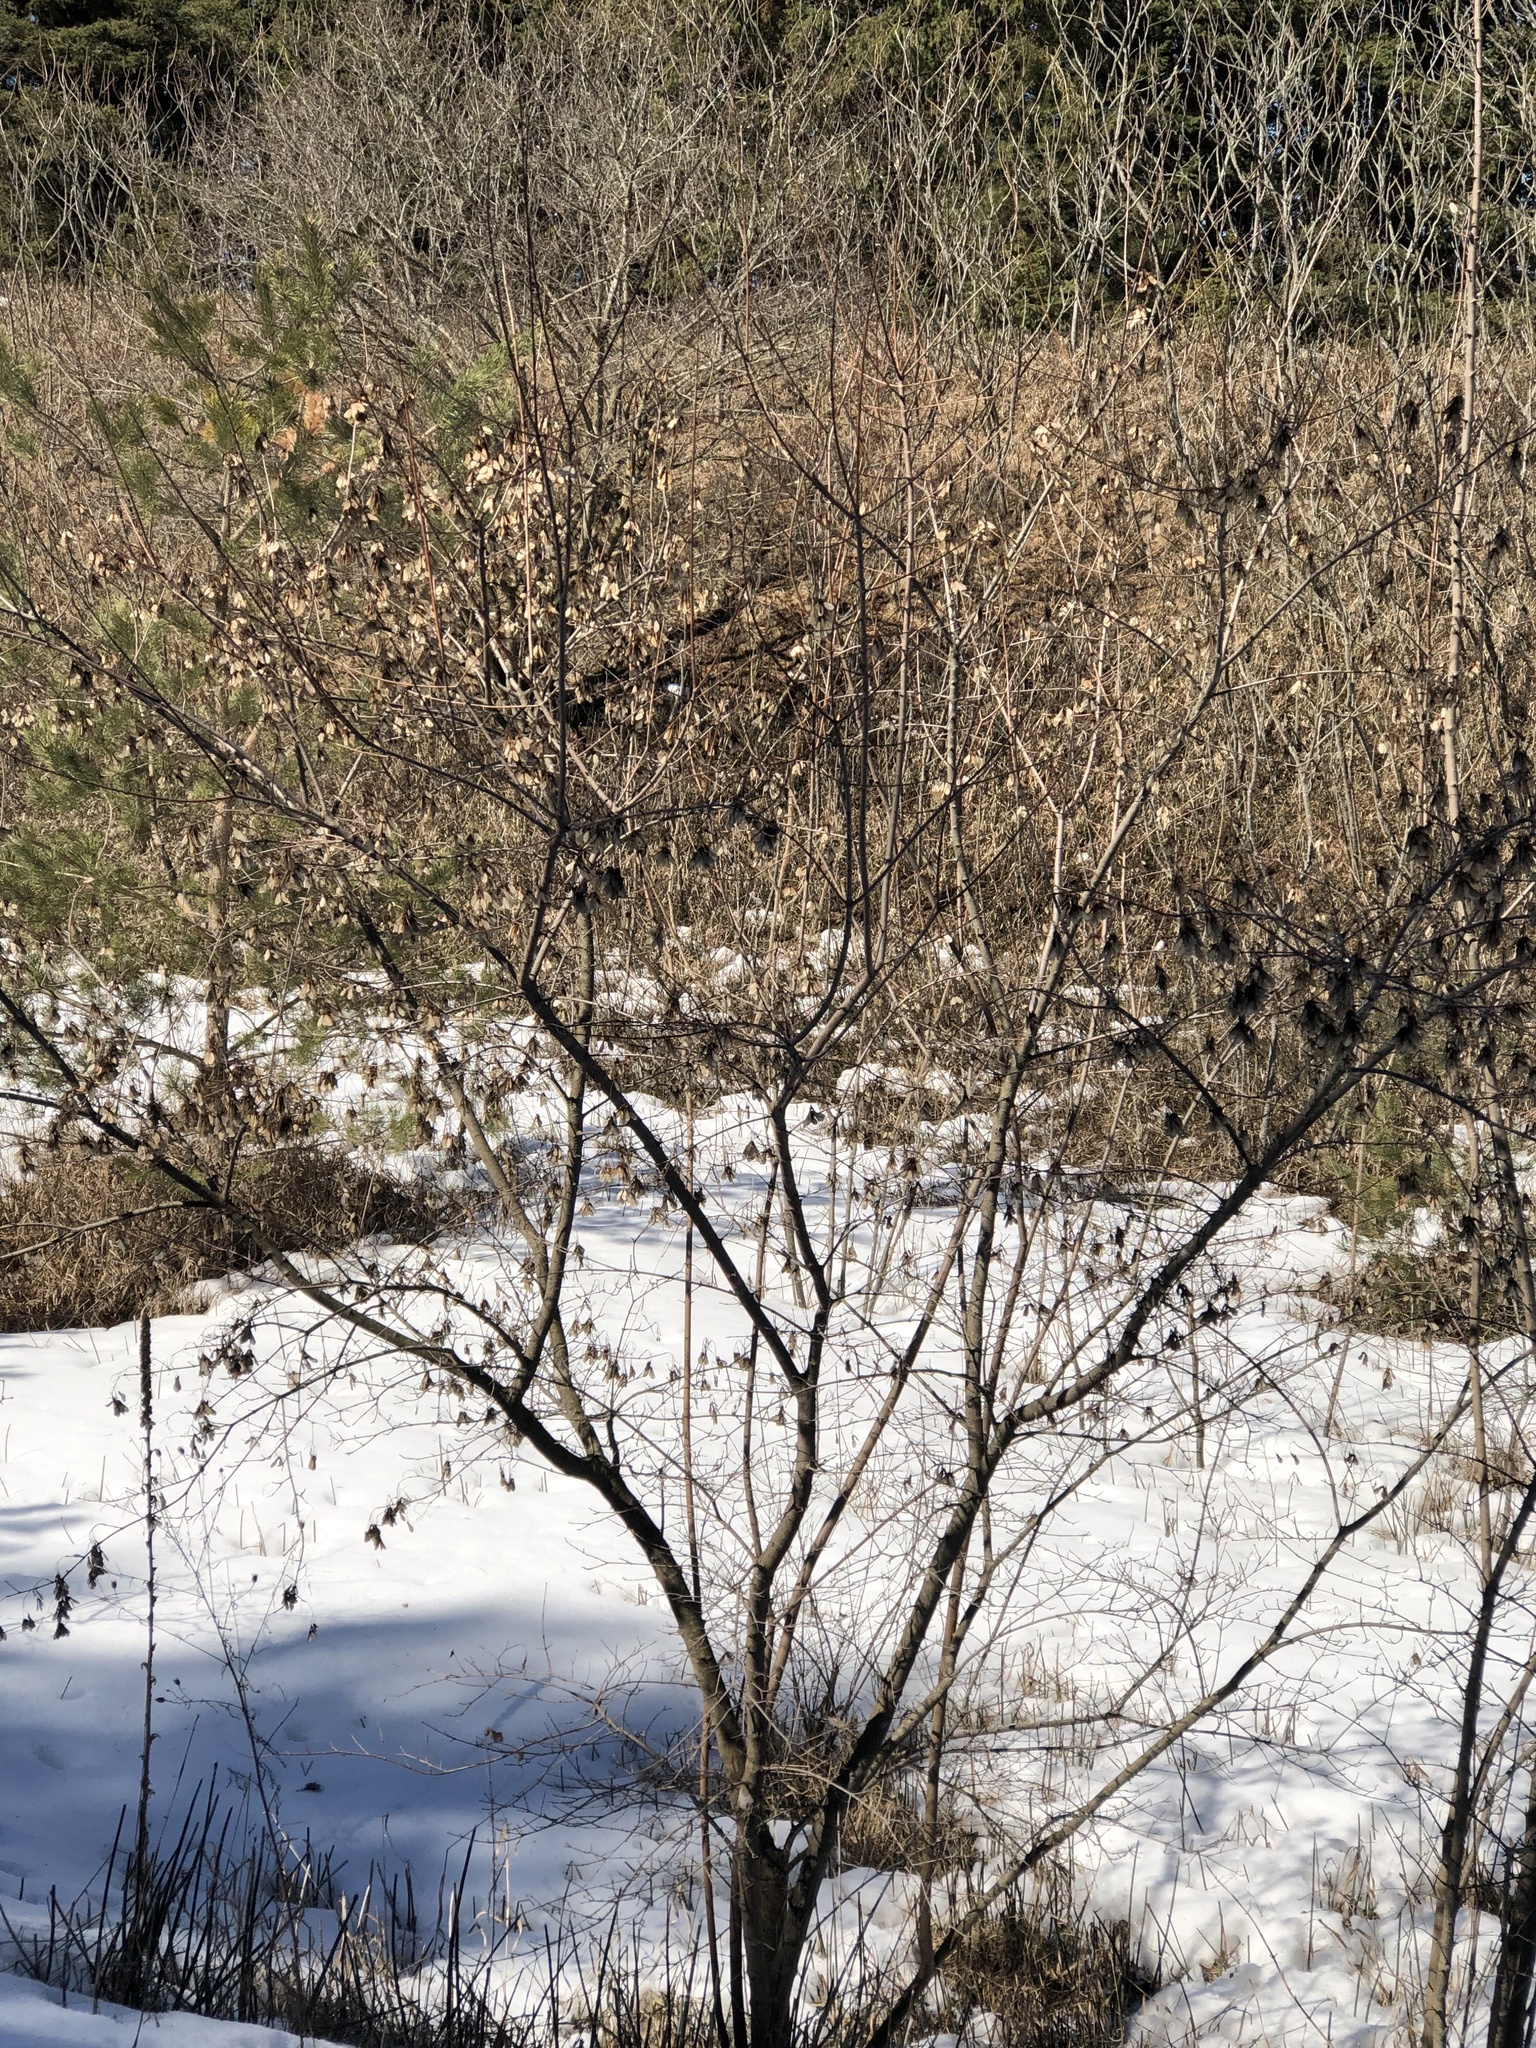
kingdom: Plantae
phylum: Tracheophyta
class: Magnoliopsida
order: Rosales
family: Rhamnaceae
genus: Rhamnus
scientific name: Rhamnus cathartica
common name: Common buckthorn
